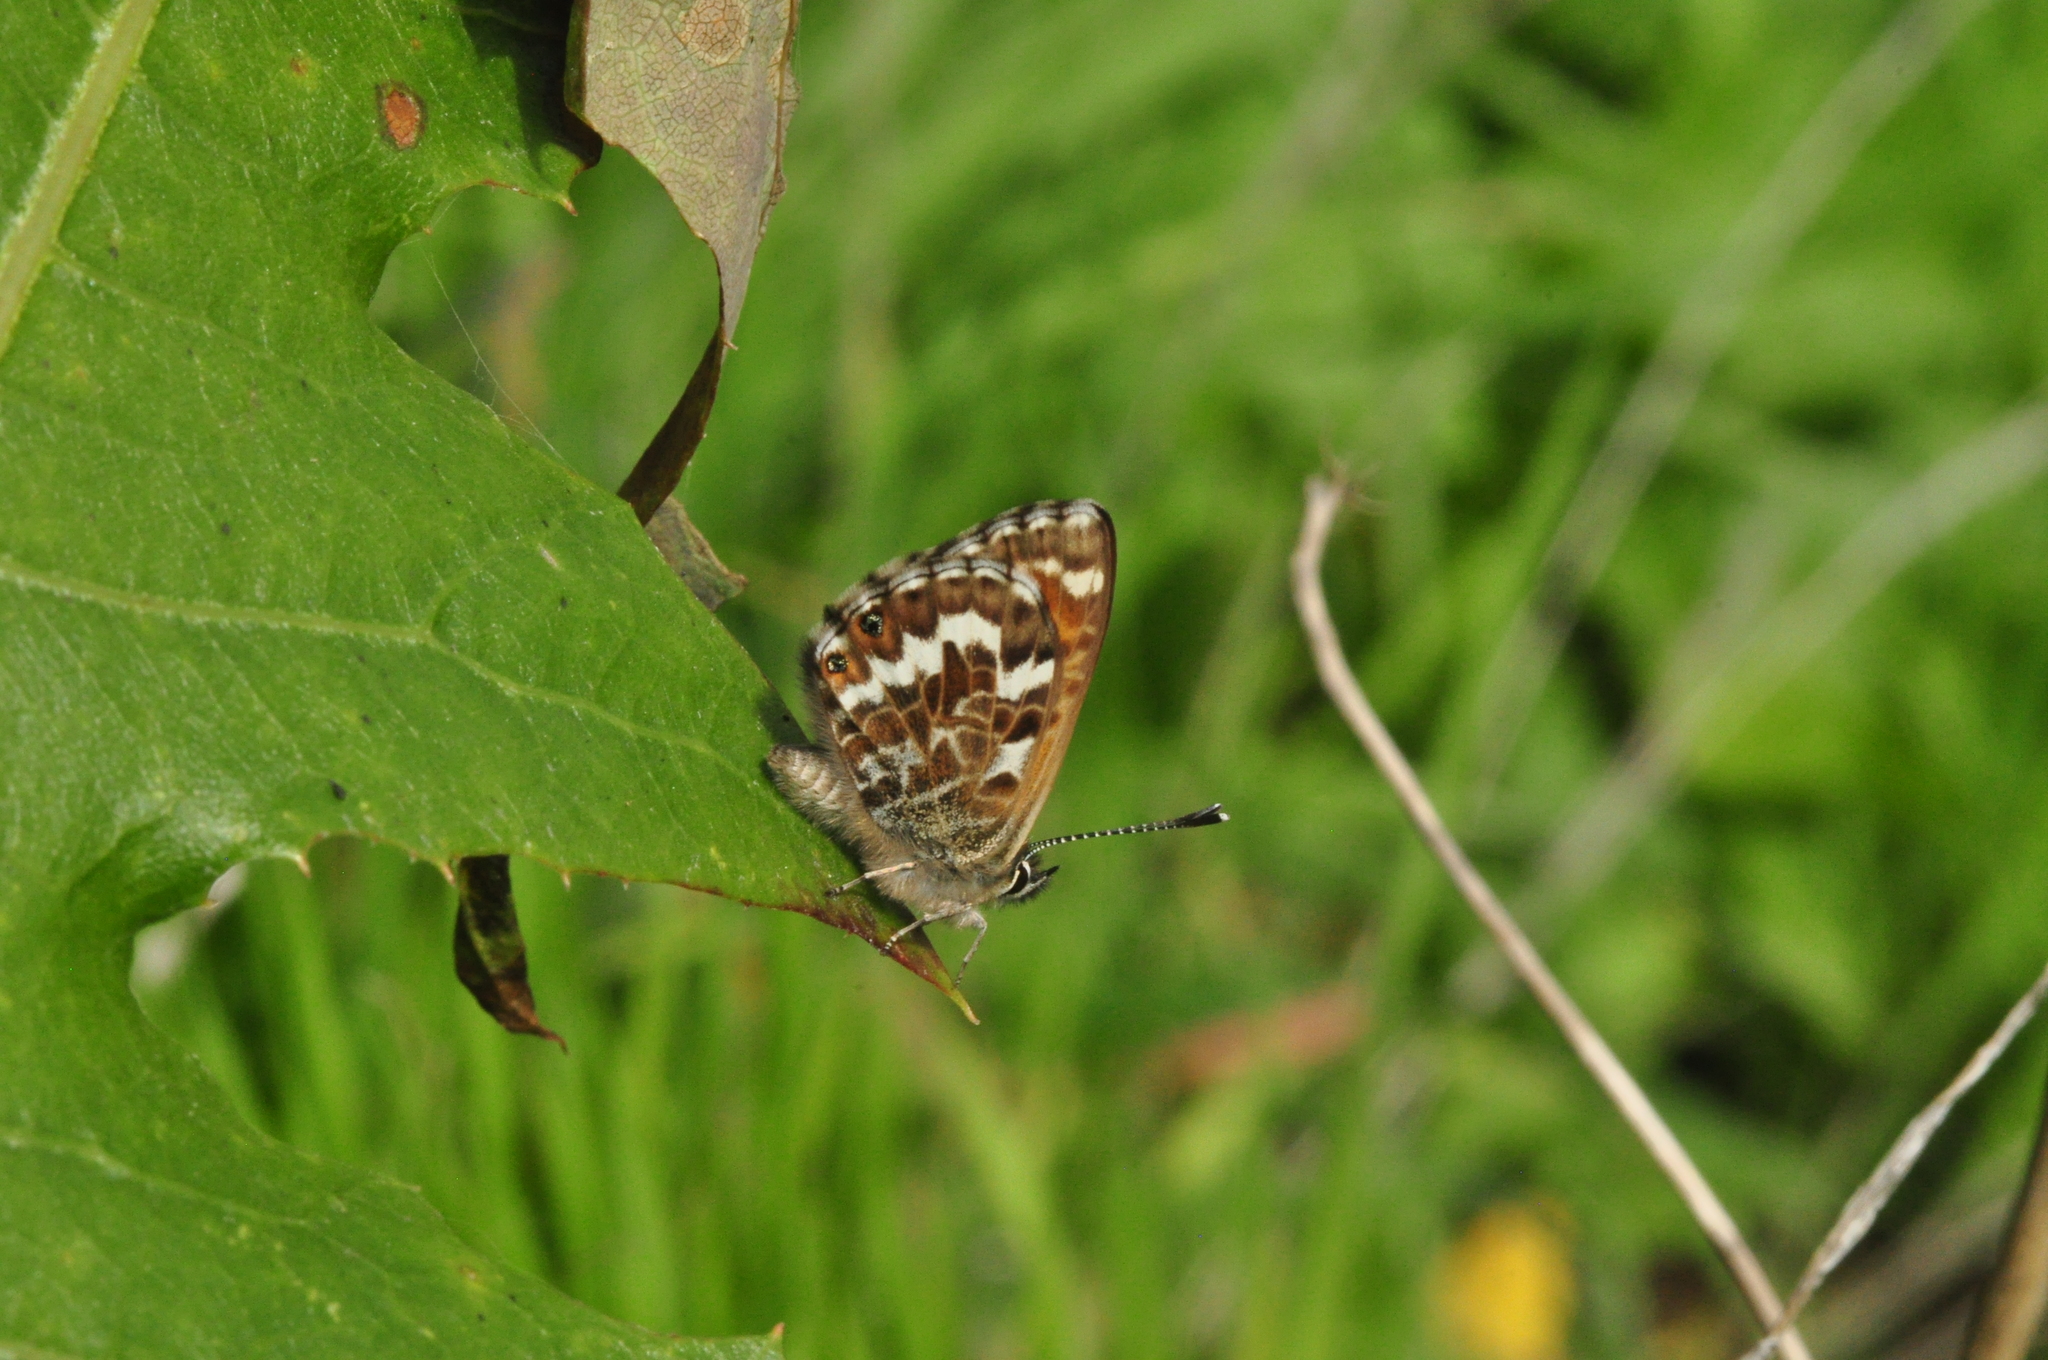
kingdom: Animalia
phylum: Arthropoda
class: Insecta
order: Lepidoptera
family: Lycaenidae
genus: Cyclyrius
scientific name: Cyclyrius webbianus
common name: Canary blue
